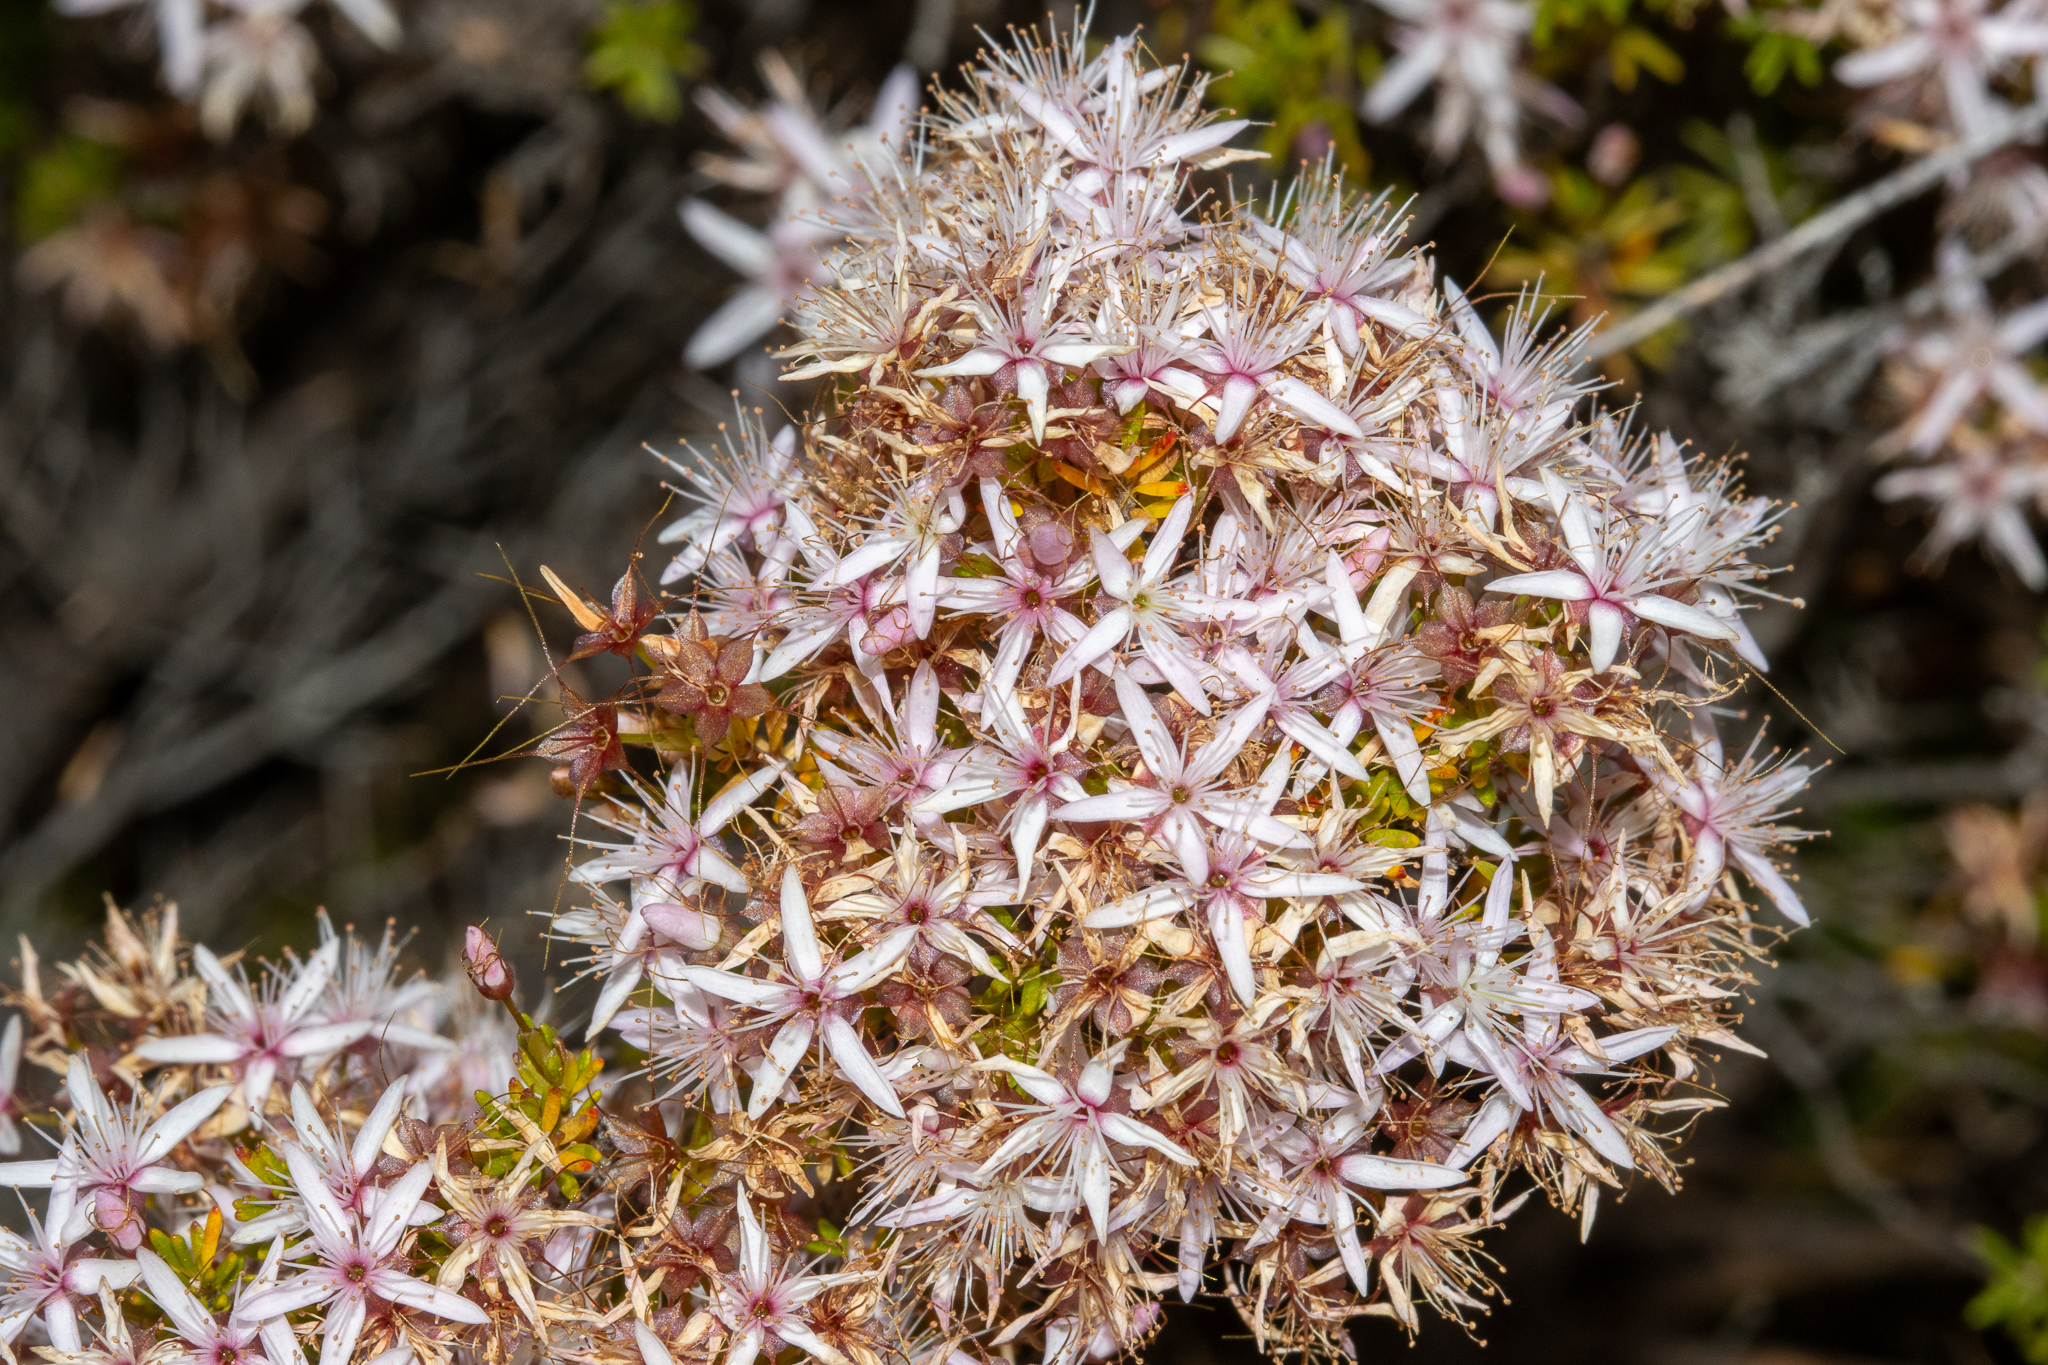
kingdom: Plantae
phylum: Tracheophyta
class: Magnoliopsida
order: Myrtales
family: Myrtaceae
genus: Calytrix
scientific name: Calytrix tetragona
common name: Common fringe myrtle
